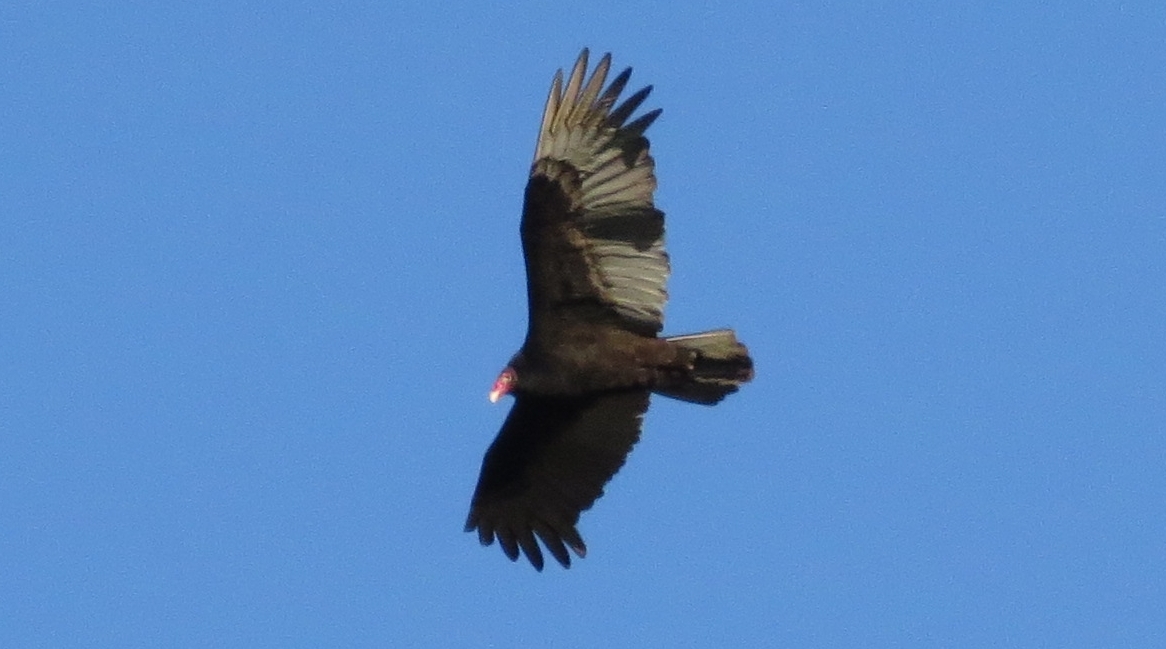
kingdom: Animalia
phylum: Chordata
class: Aves
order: Accipitriformes
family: Cathartidae
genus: Cathartes
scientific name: Cathartes aura
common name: Turkey vulture
